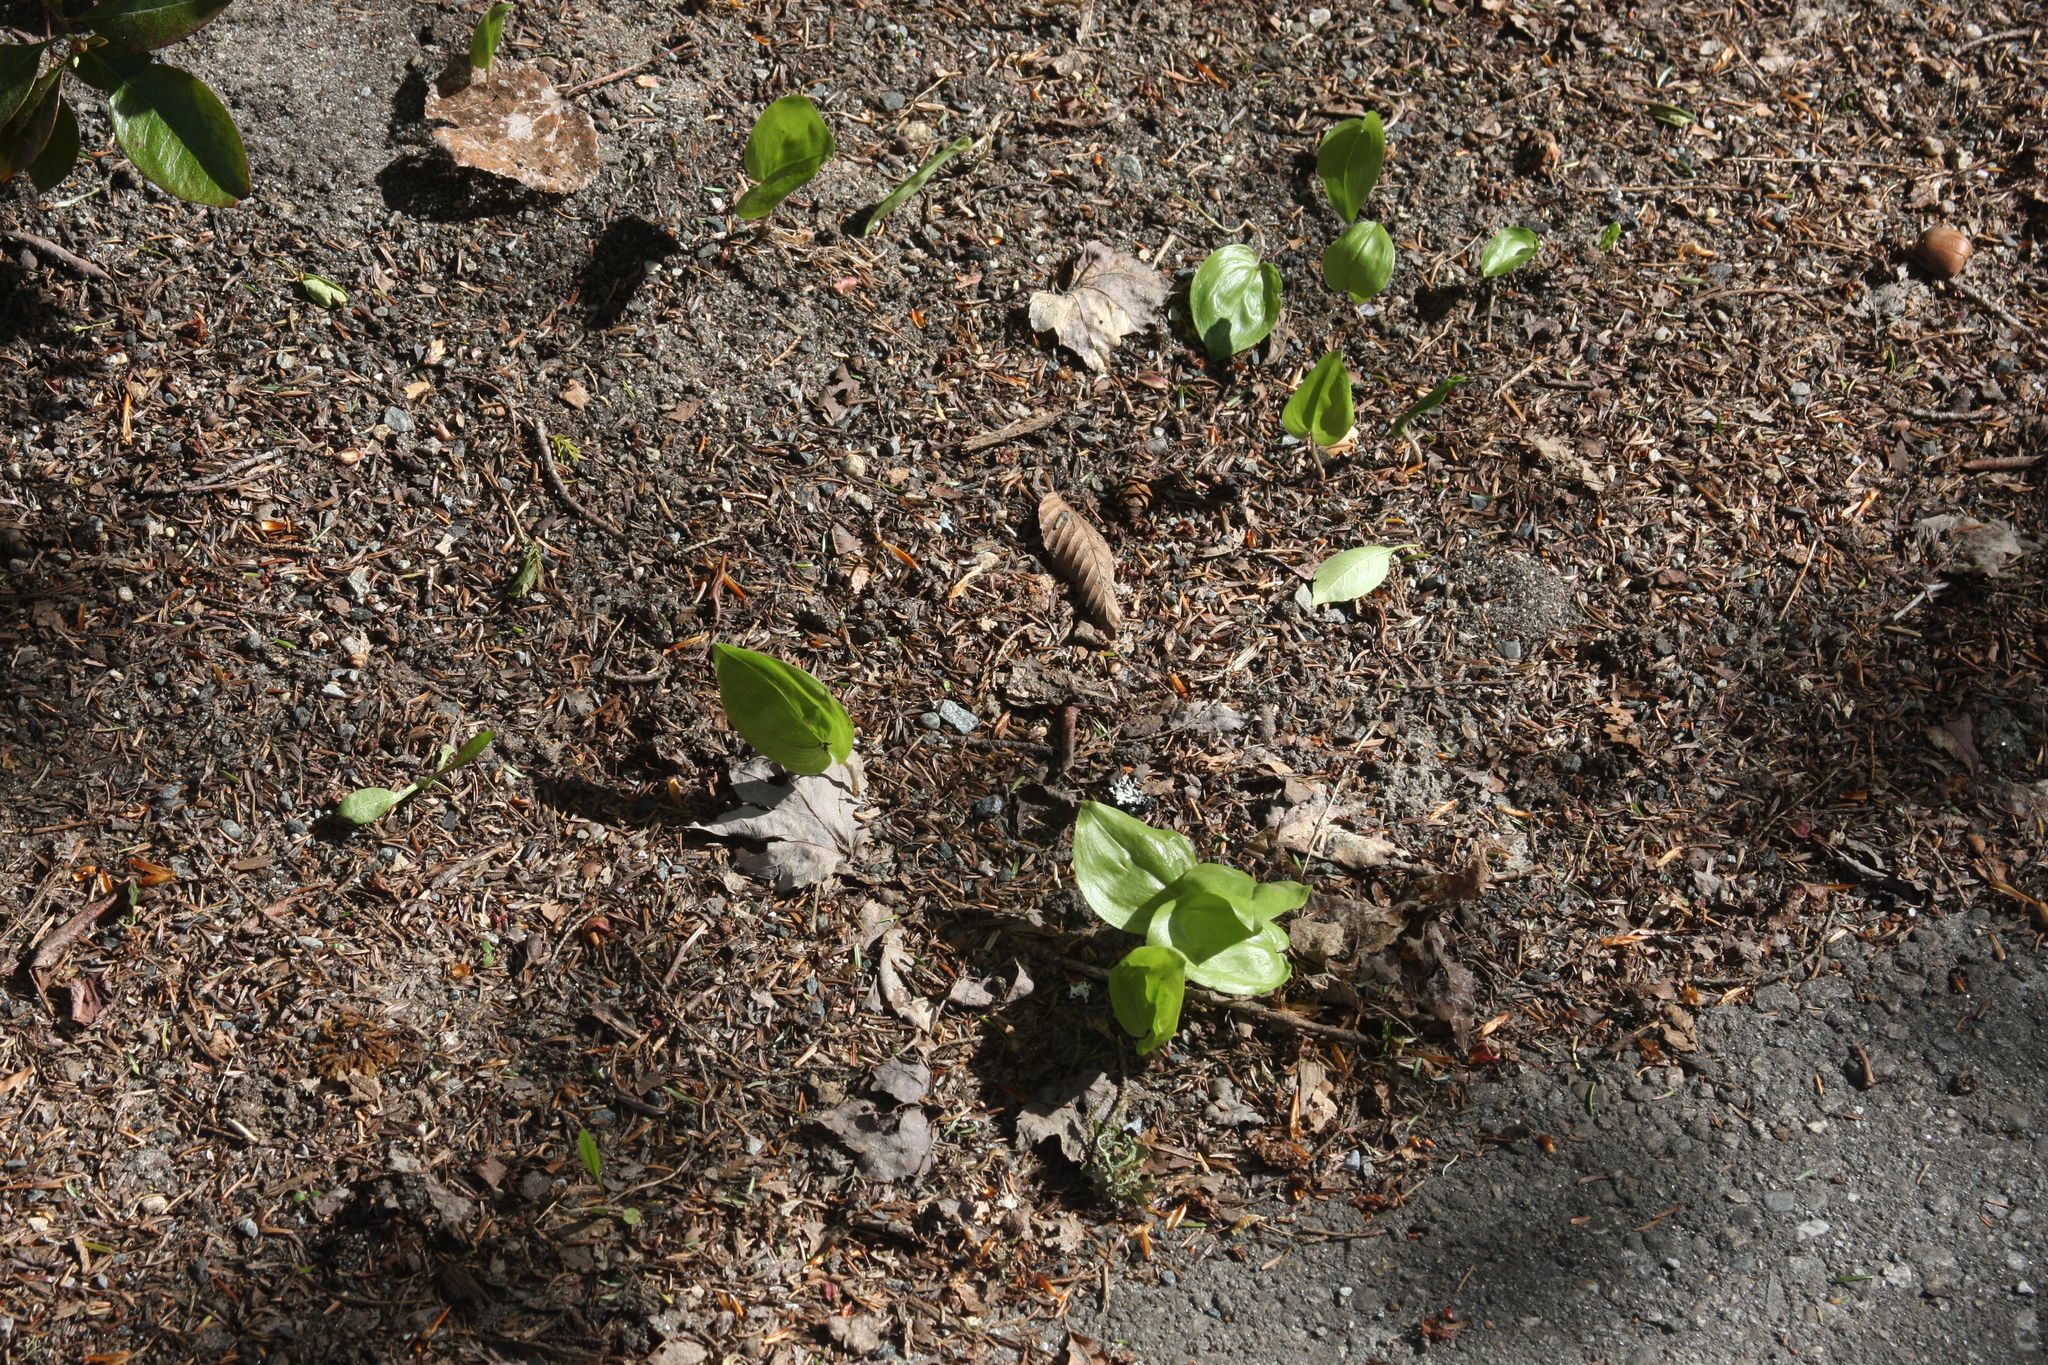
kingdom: Plantae
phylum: Tracheophyta
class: Liliopsida
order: Asparagales
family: Asparagaceae
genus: Maianthemum
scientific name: Maianthemum canadense
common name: False lily-of-the-valley
